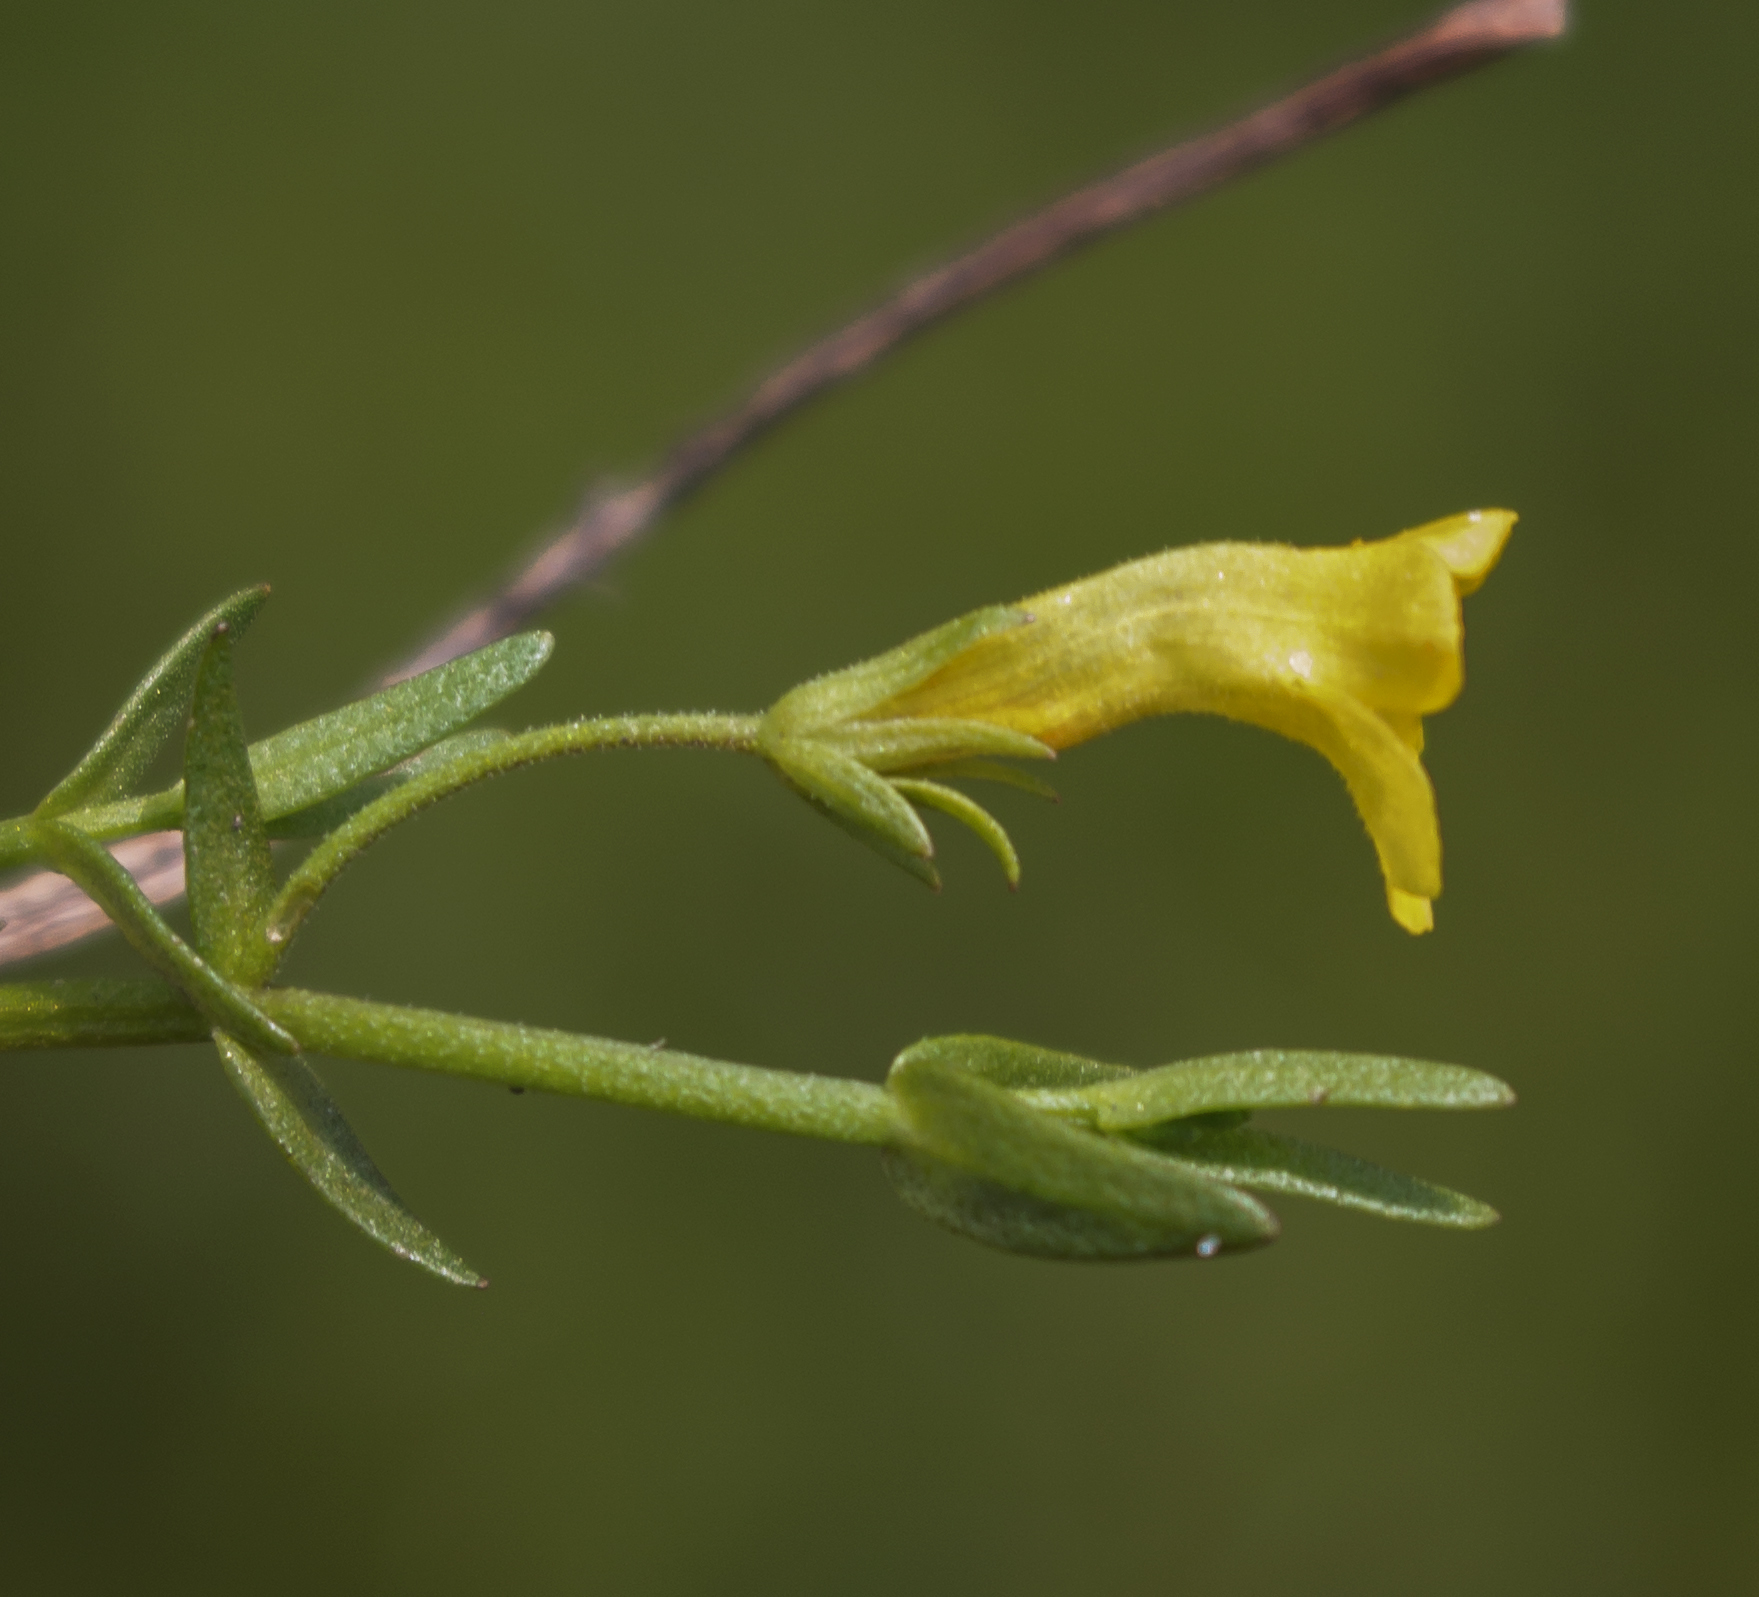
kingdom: Plantae
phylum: Tracheophyta
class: Magnoliopsida
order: Lamiales
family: Plantaginaceae
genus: Gratiola
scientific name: Gratiola lutea
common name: Golden hedge-hyssop
